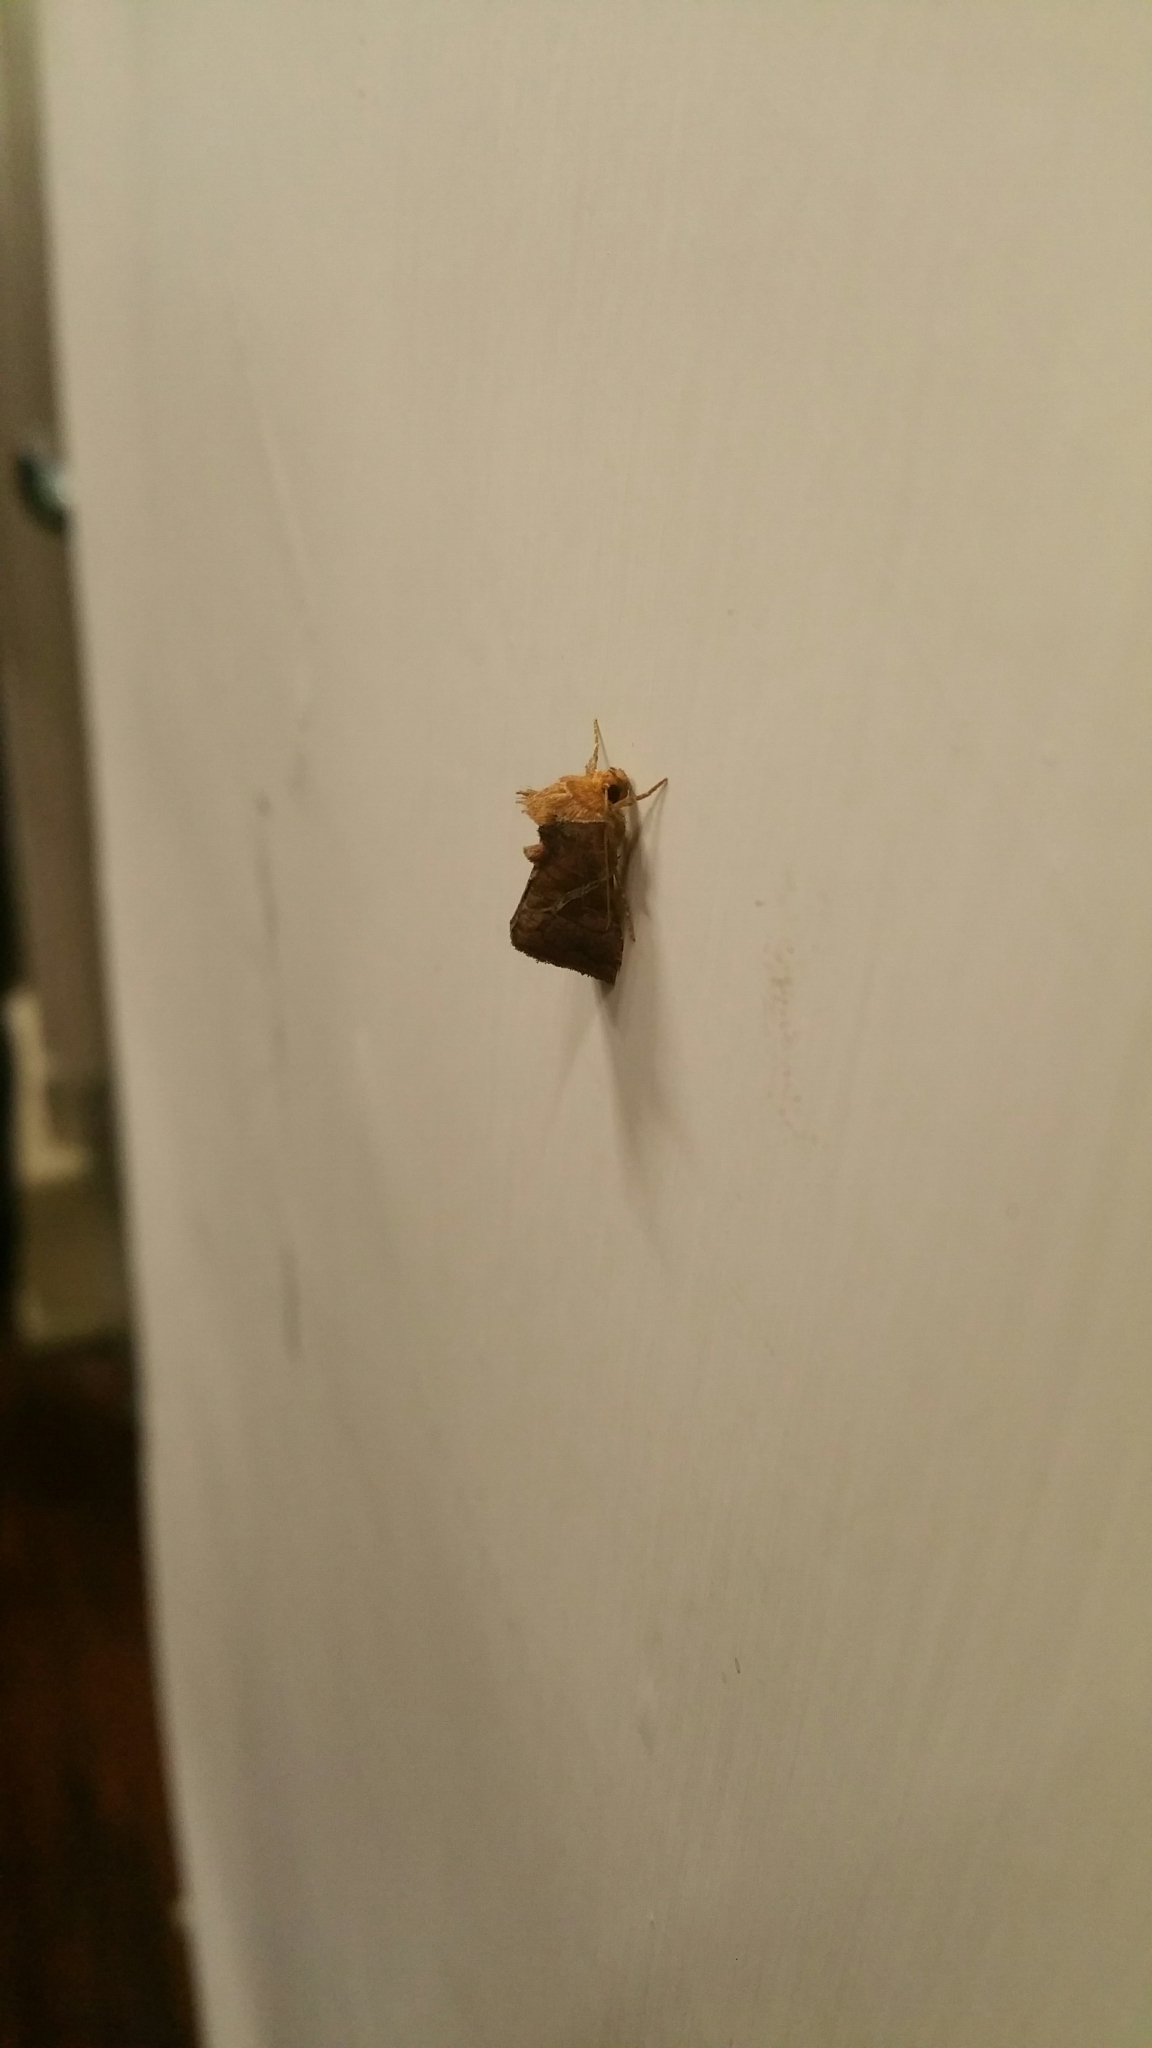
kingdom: Animalia
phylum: Arthropoda
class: Insecta
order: Lepidoptera
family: Limacodidae
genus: Miresa
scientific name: Miresa kwangtungensis
